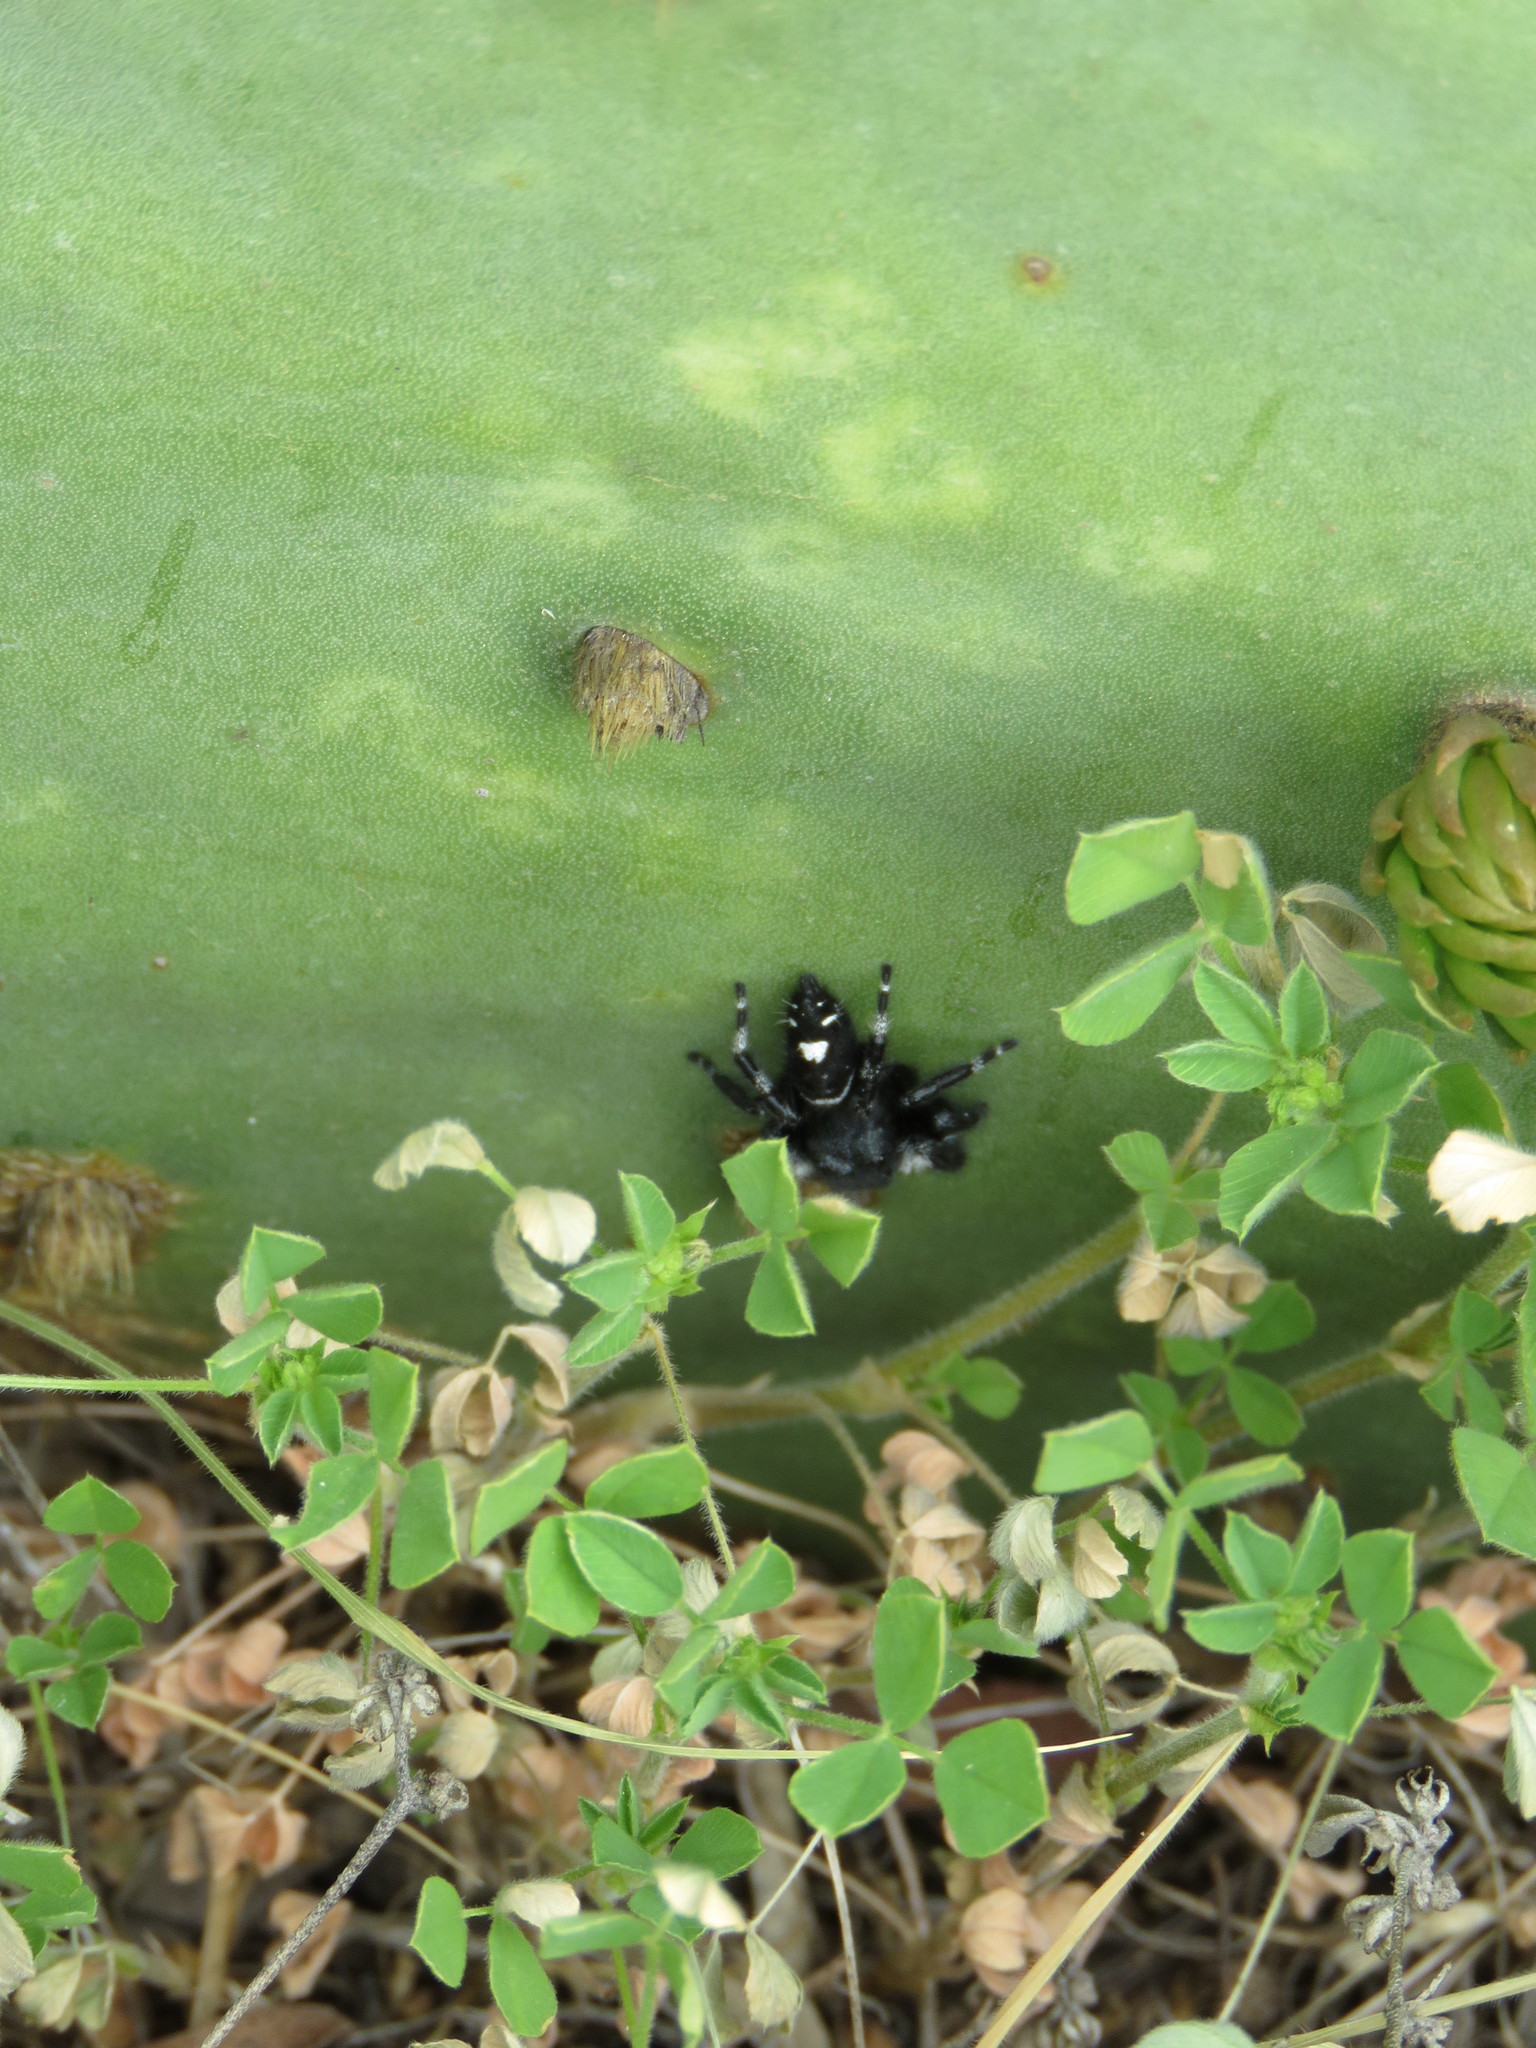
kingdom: Animalia
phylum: Arthropoda
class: Arachnida
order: Araneae
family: Salticidae
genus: Phidippus
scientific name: Phidippus audax
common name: Bold jumper
